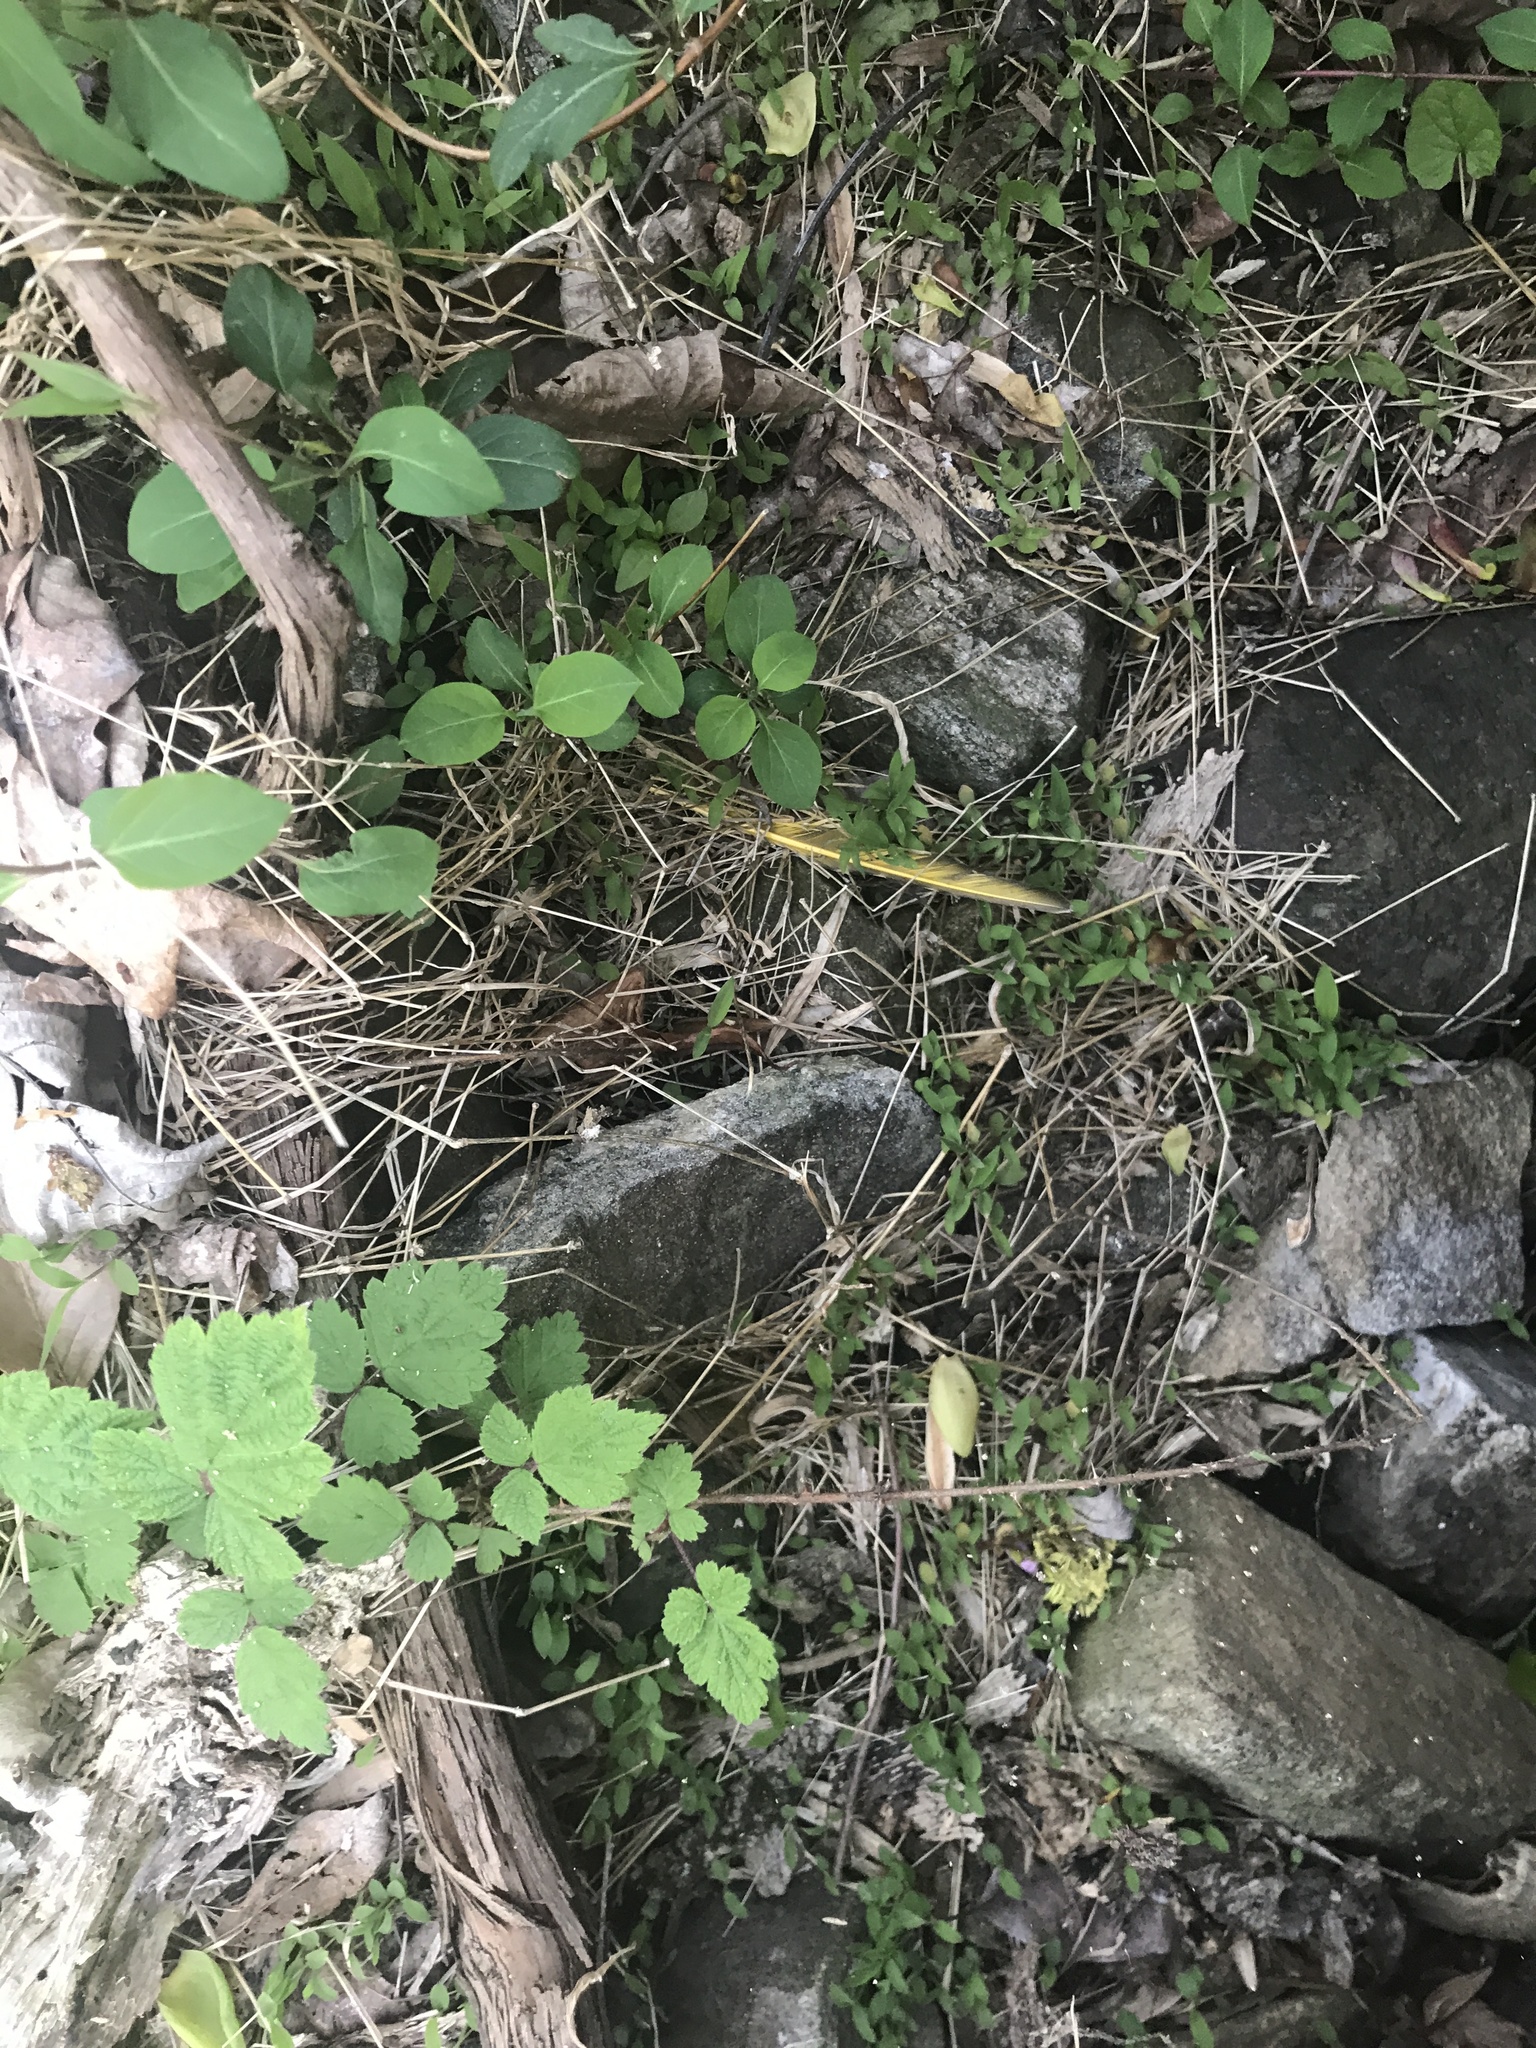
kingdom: Animalia
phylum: Chordata
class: Aves
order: Piciformes
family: Picidae
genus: Colaptes
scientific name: Colaptes auratus
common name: Northern flicker
